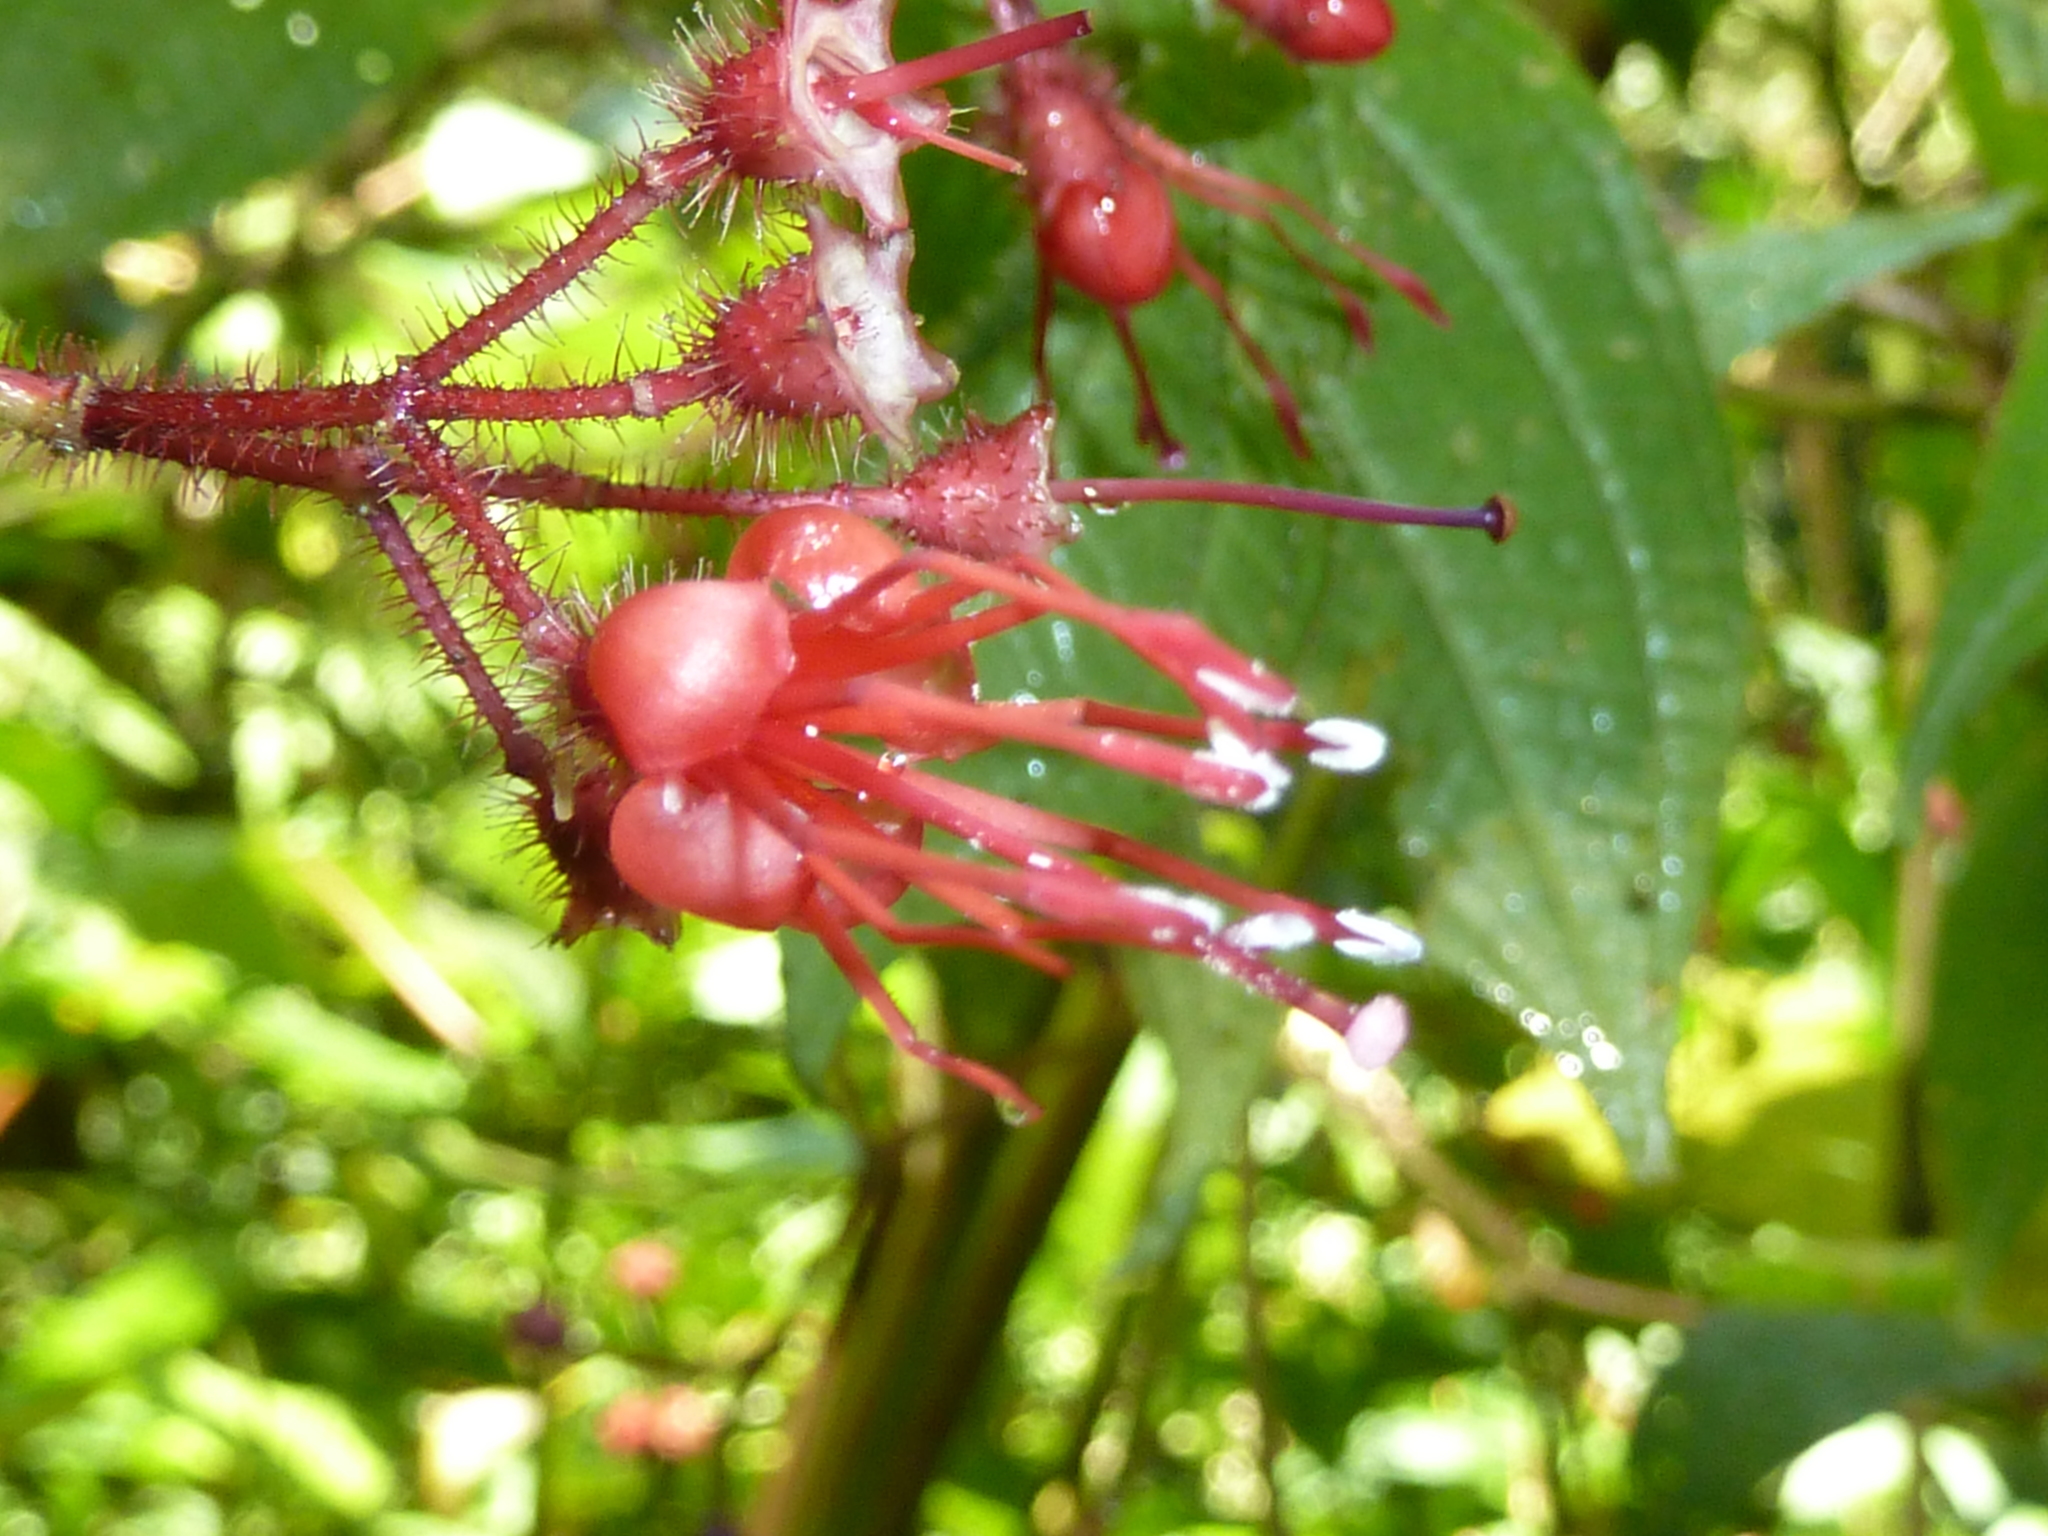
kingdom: Plantae
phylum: Tracheophyta
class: Magnoliopsida
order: Myrtales
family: Melastomataceae
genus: Miconia
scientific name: Miconia melanotricha
